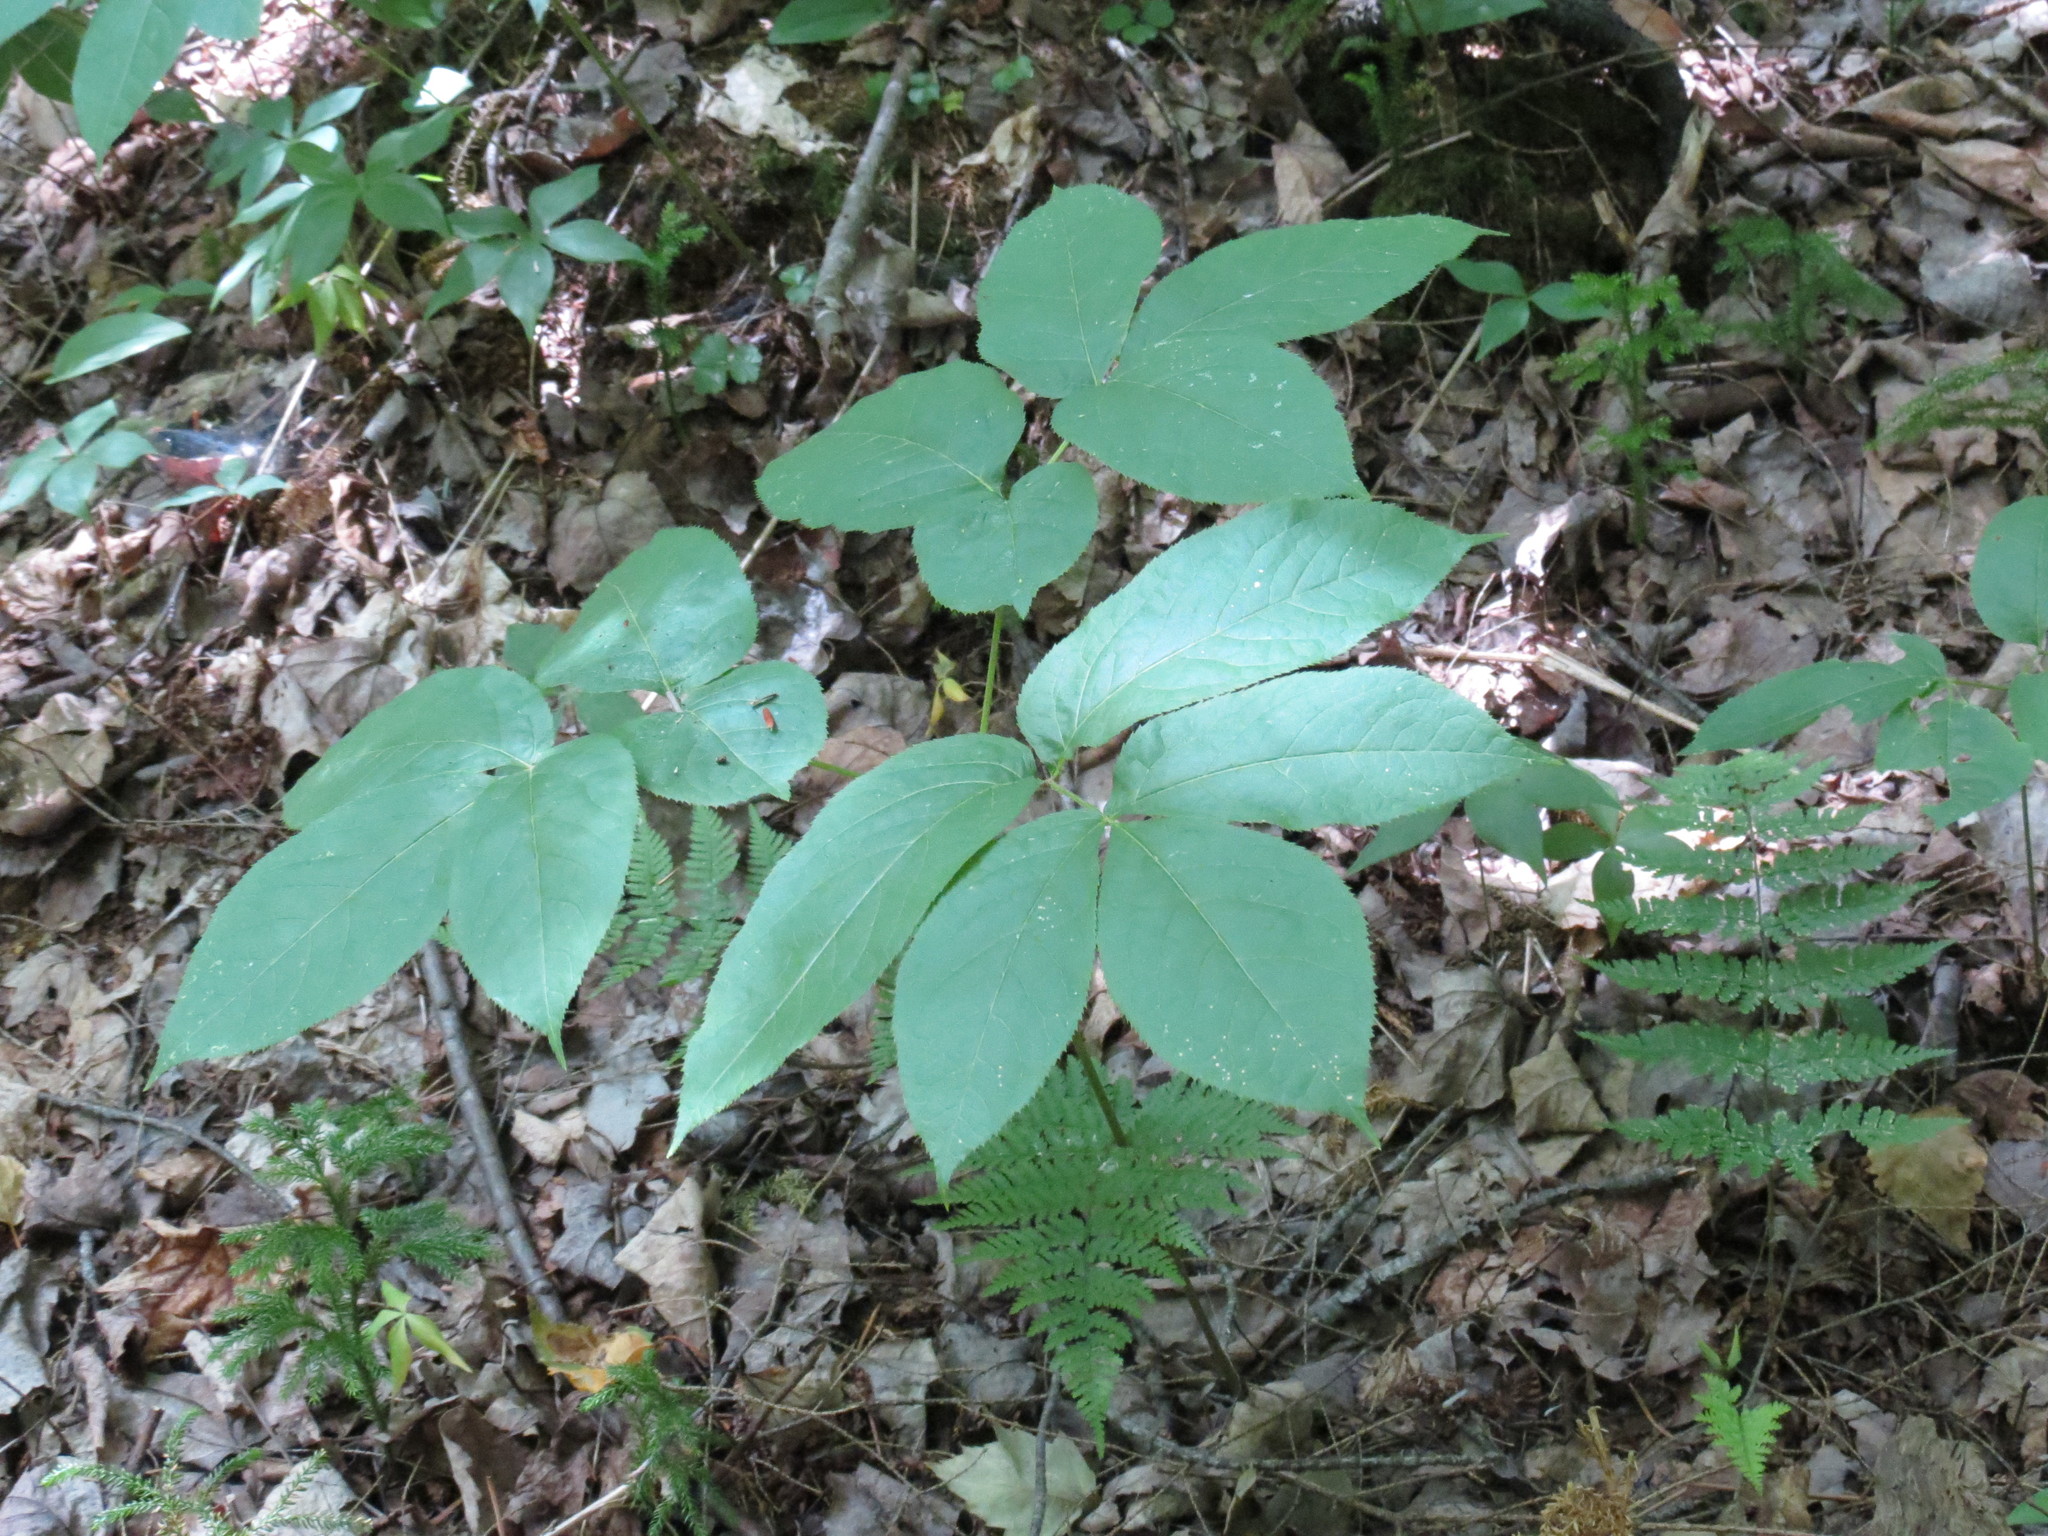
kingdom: Plantae
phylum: Tracheophyta
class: Magnoliopsida
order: Apiales
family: Araliaceae
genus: Aralia
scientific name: Aralia nudicaulis
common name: Wild sarsaparilla
